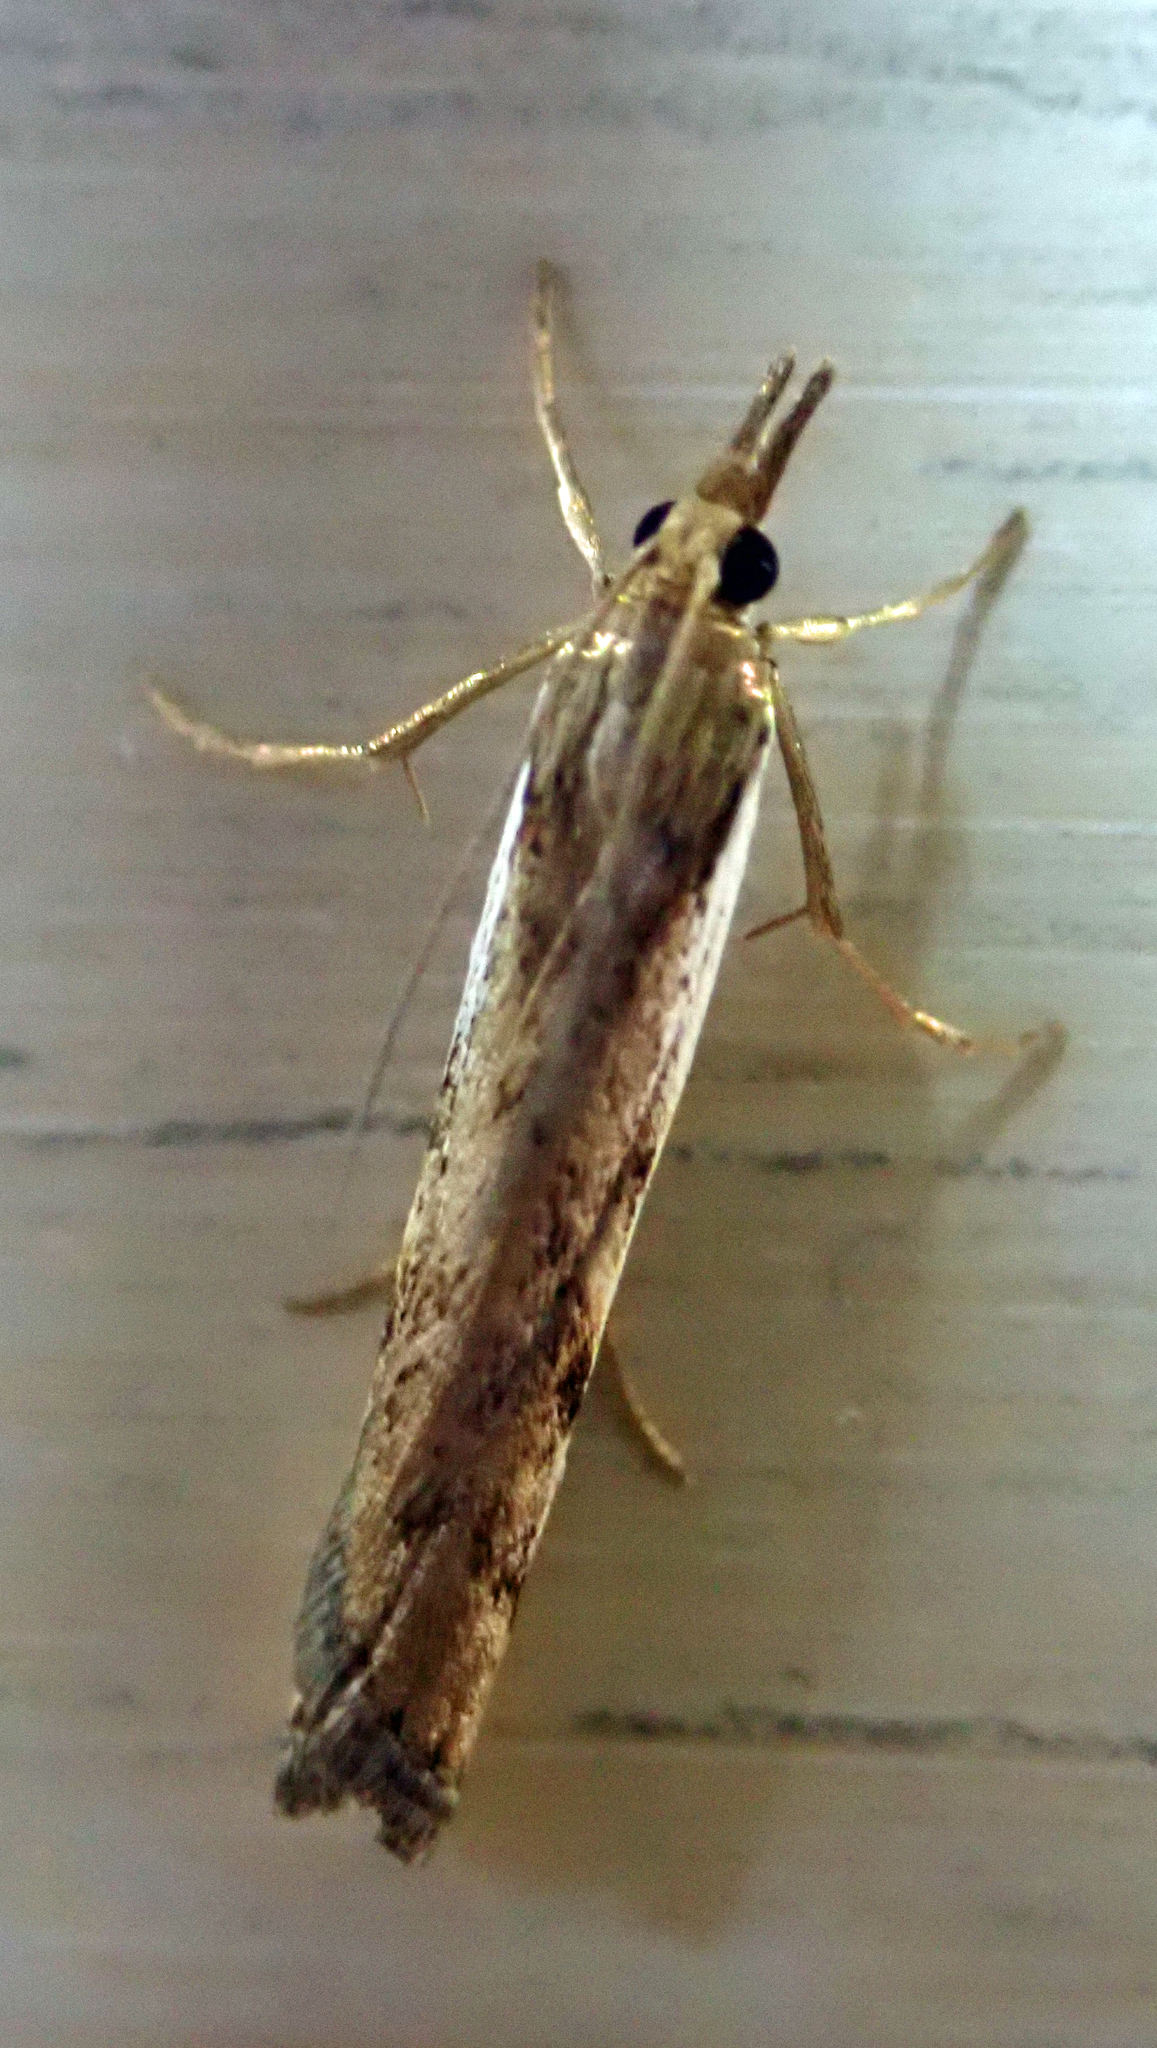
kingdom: Animalia
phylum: Arthropoda
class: Insecta
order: Lepidoptera
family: Crambidae
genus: Orocrambus
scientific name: Orocrambus flexuosellus
